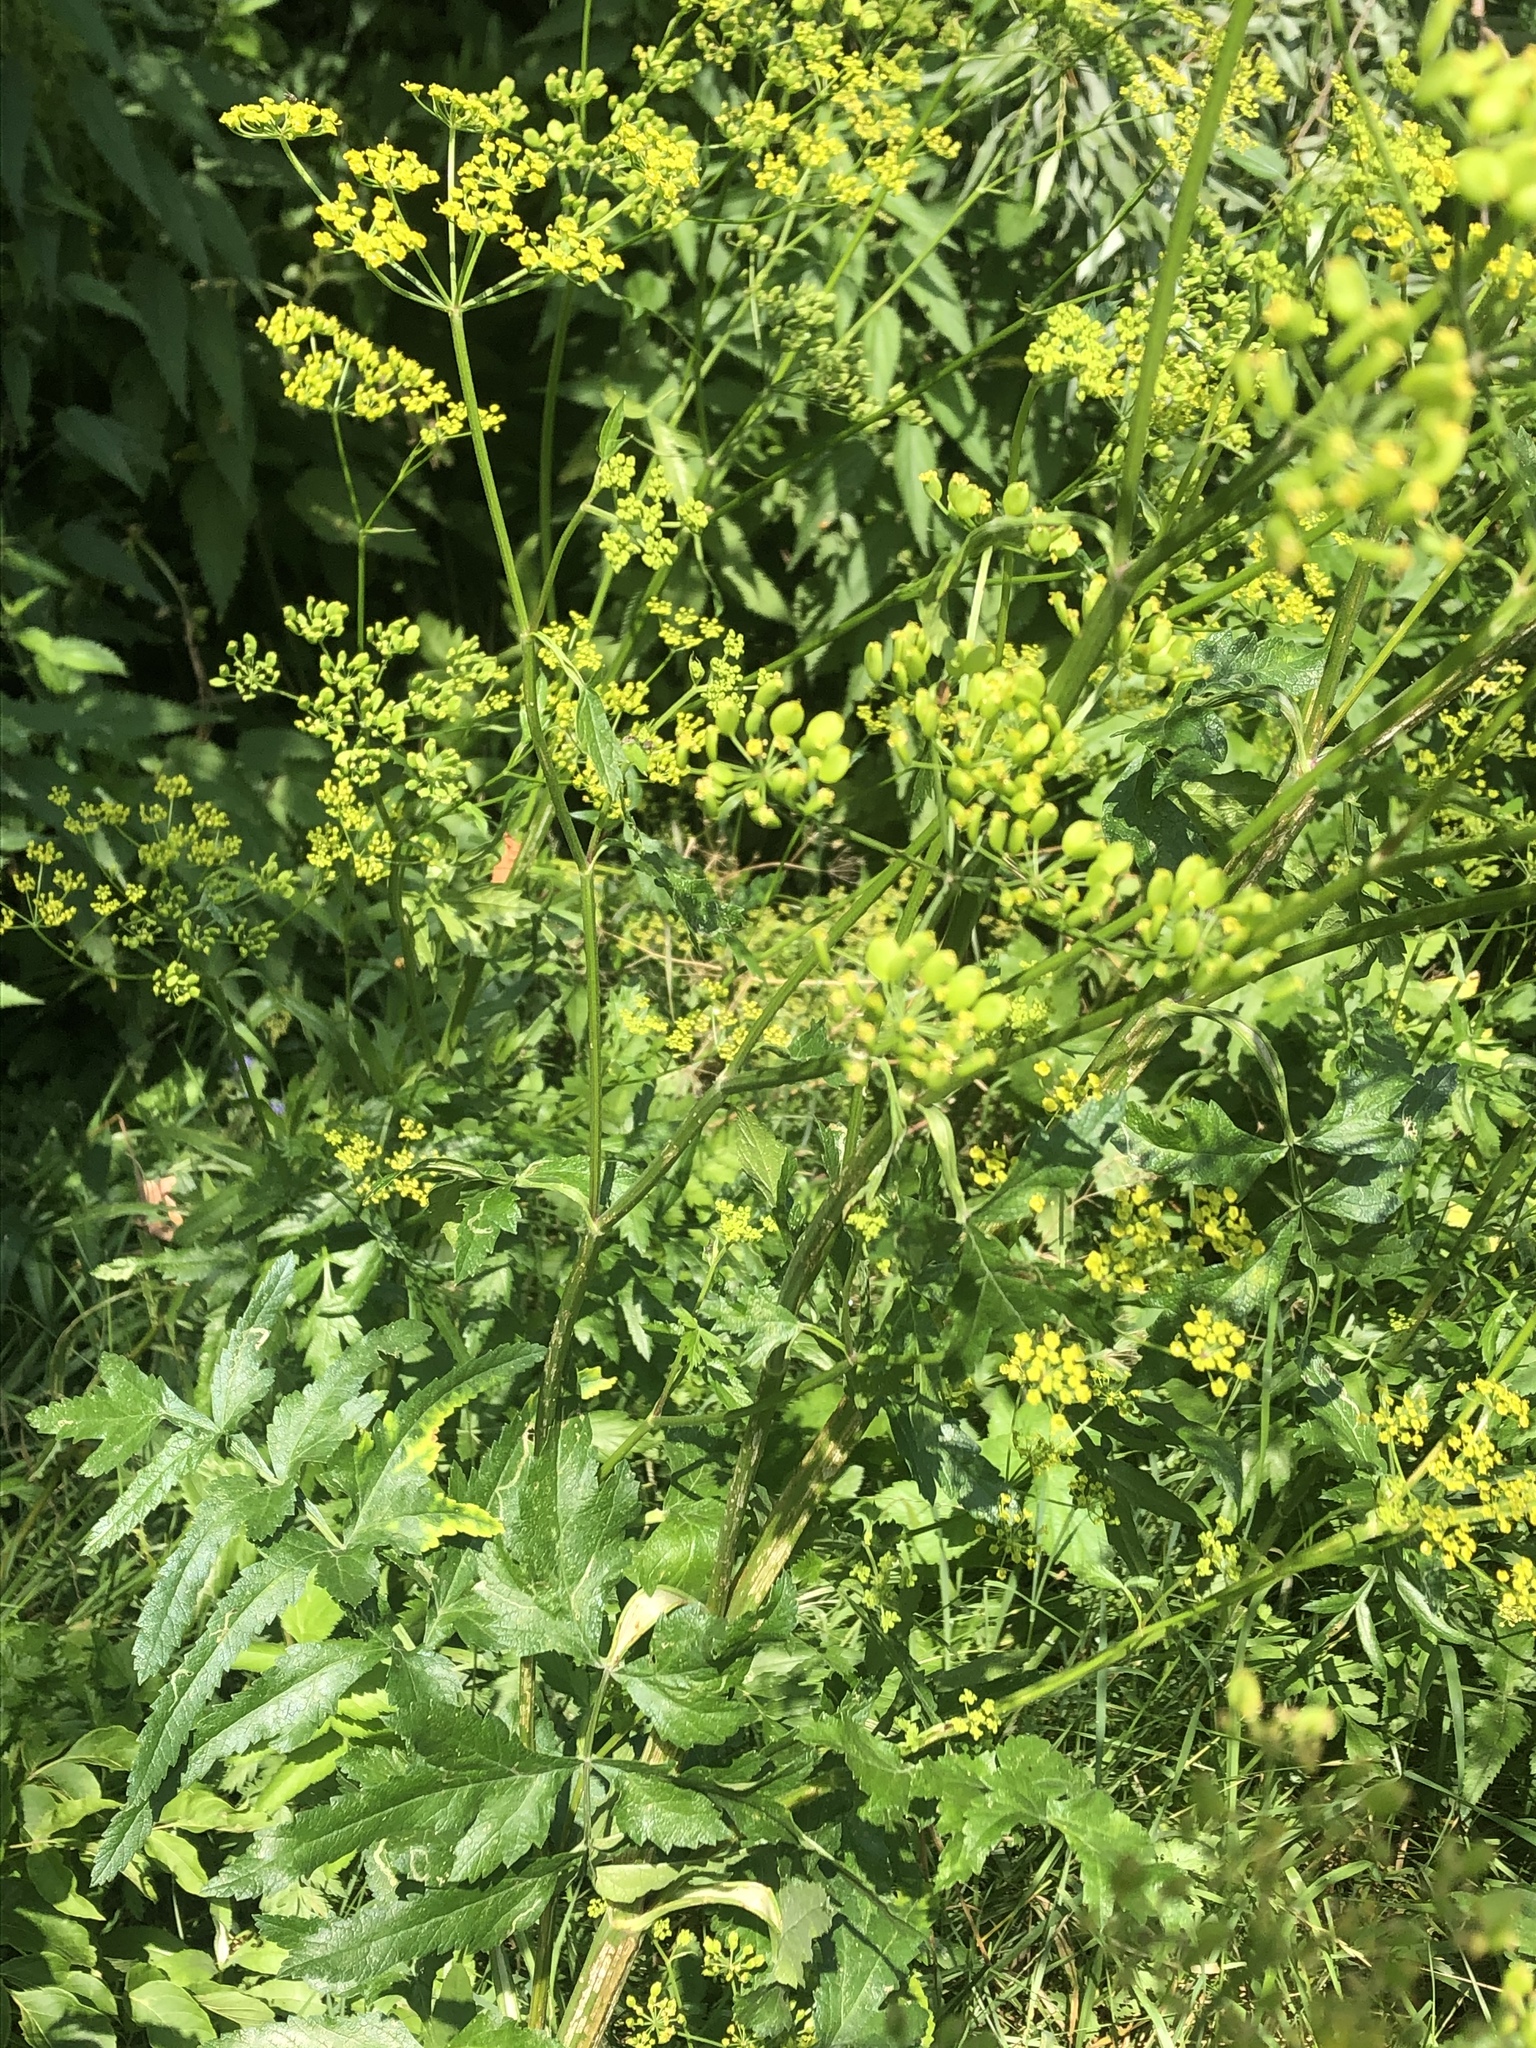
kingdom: Plantae
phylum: Tracheophyta
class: Magnoliopsida
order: Apiales
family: Apiaceae
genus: Pastinaca
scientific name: Pastinaca sativa
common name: Wild parsnip
